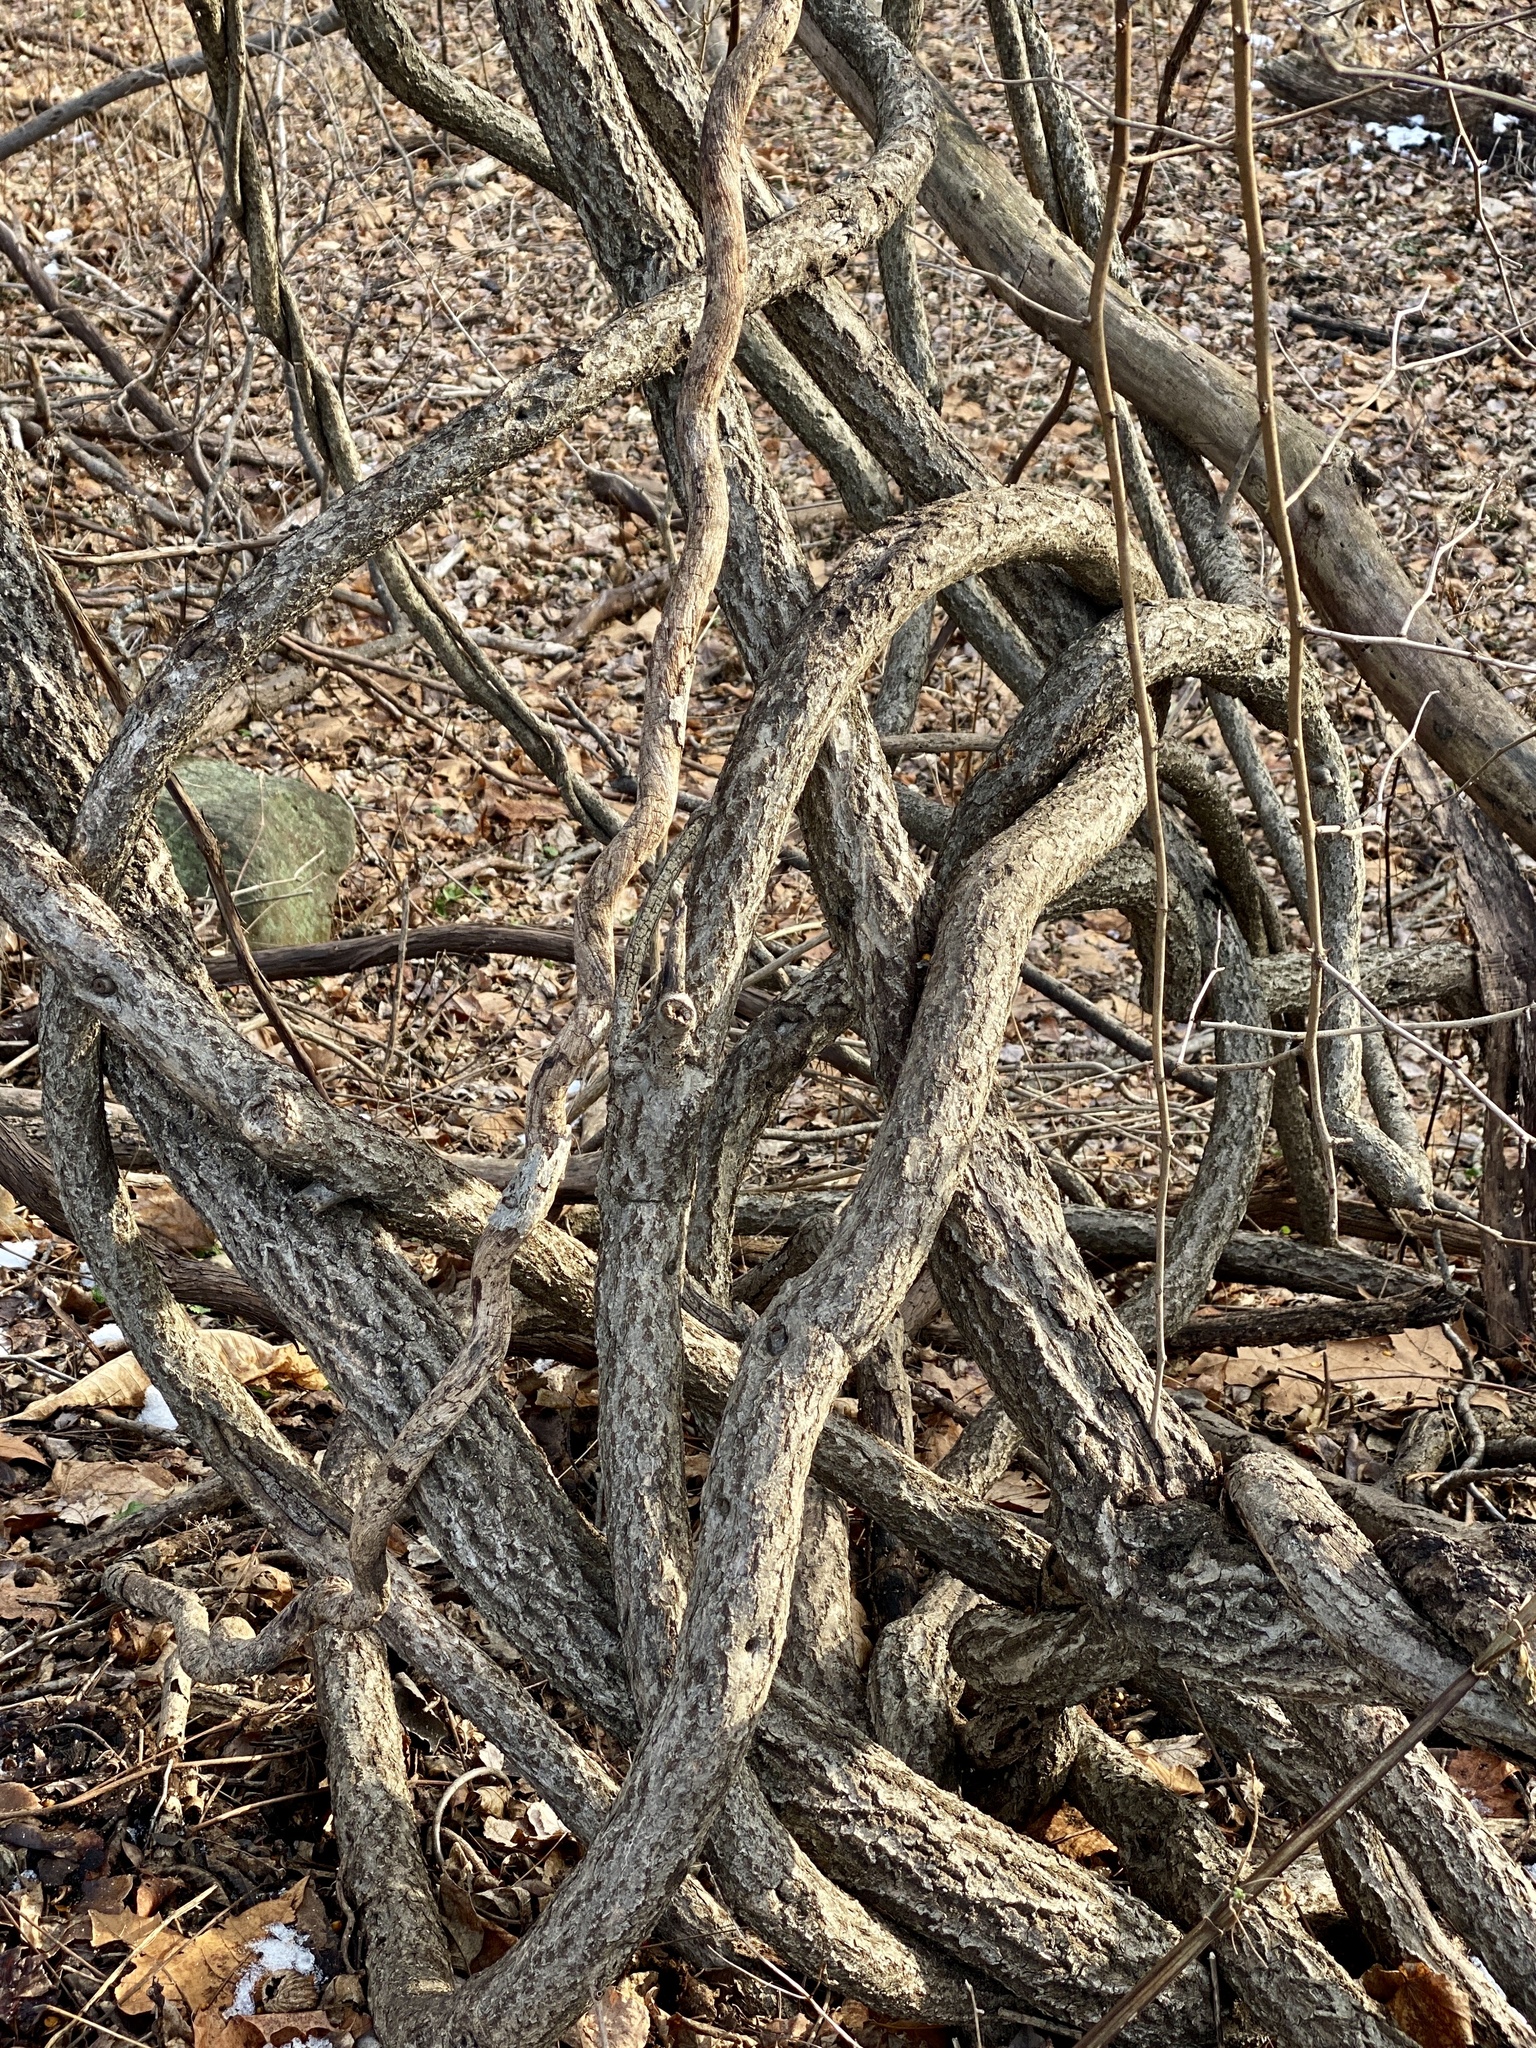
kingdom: Plantae
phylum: Tracheophyta
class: Magnoliopsida
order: Celastrales
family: Celastraceae
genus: Celastrus
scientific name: Celastrus orbiculatus
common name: Oriental bittersweet
